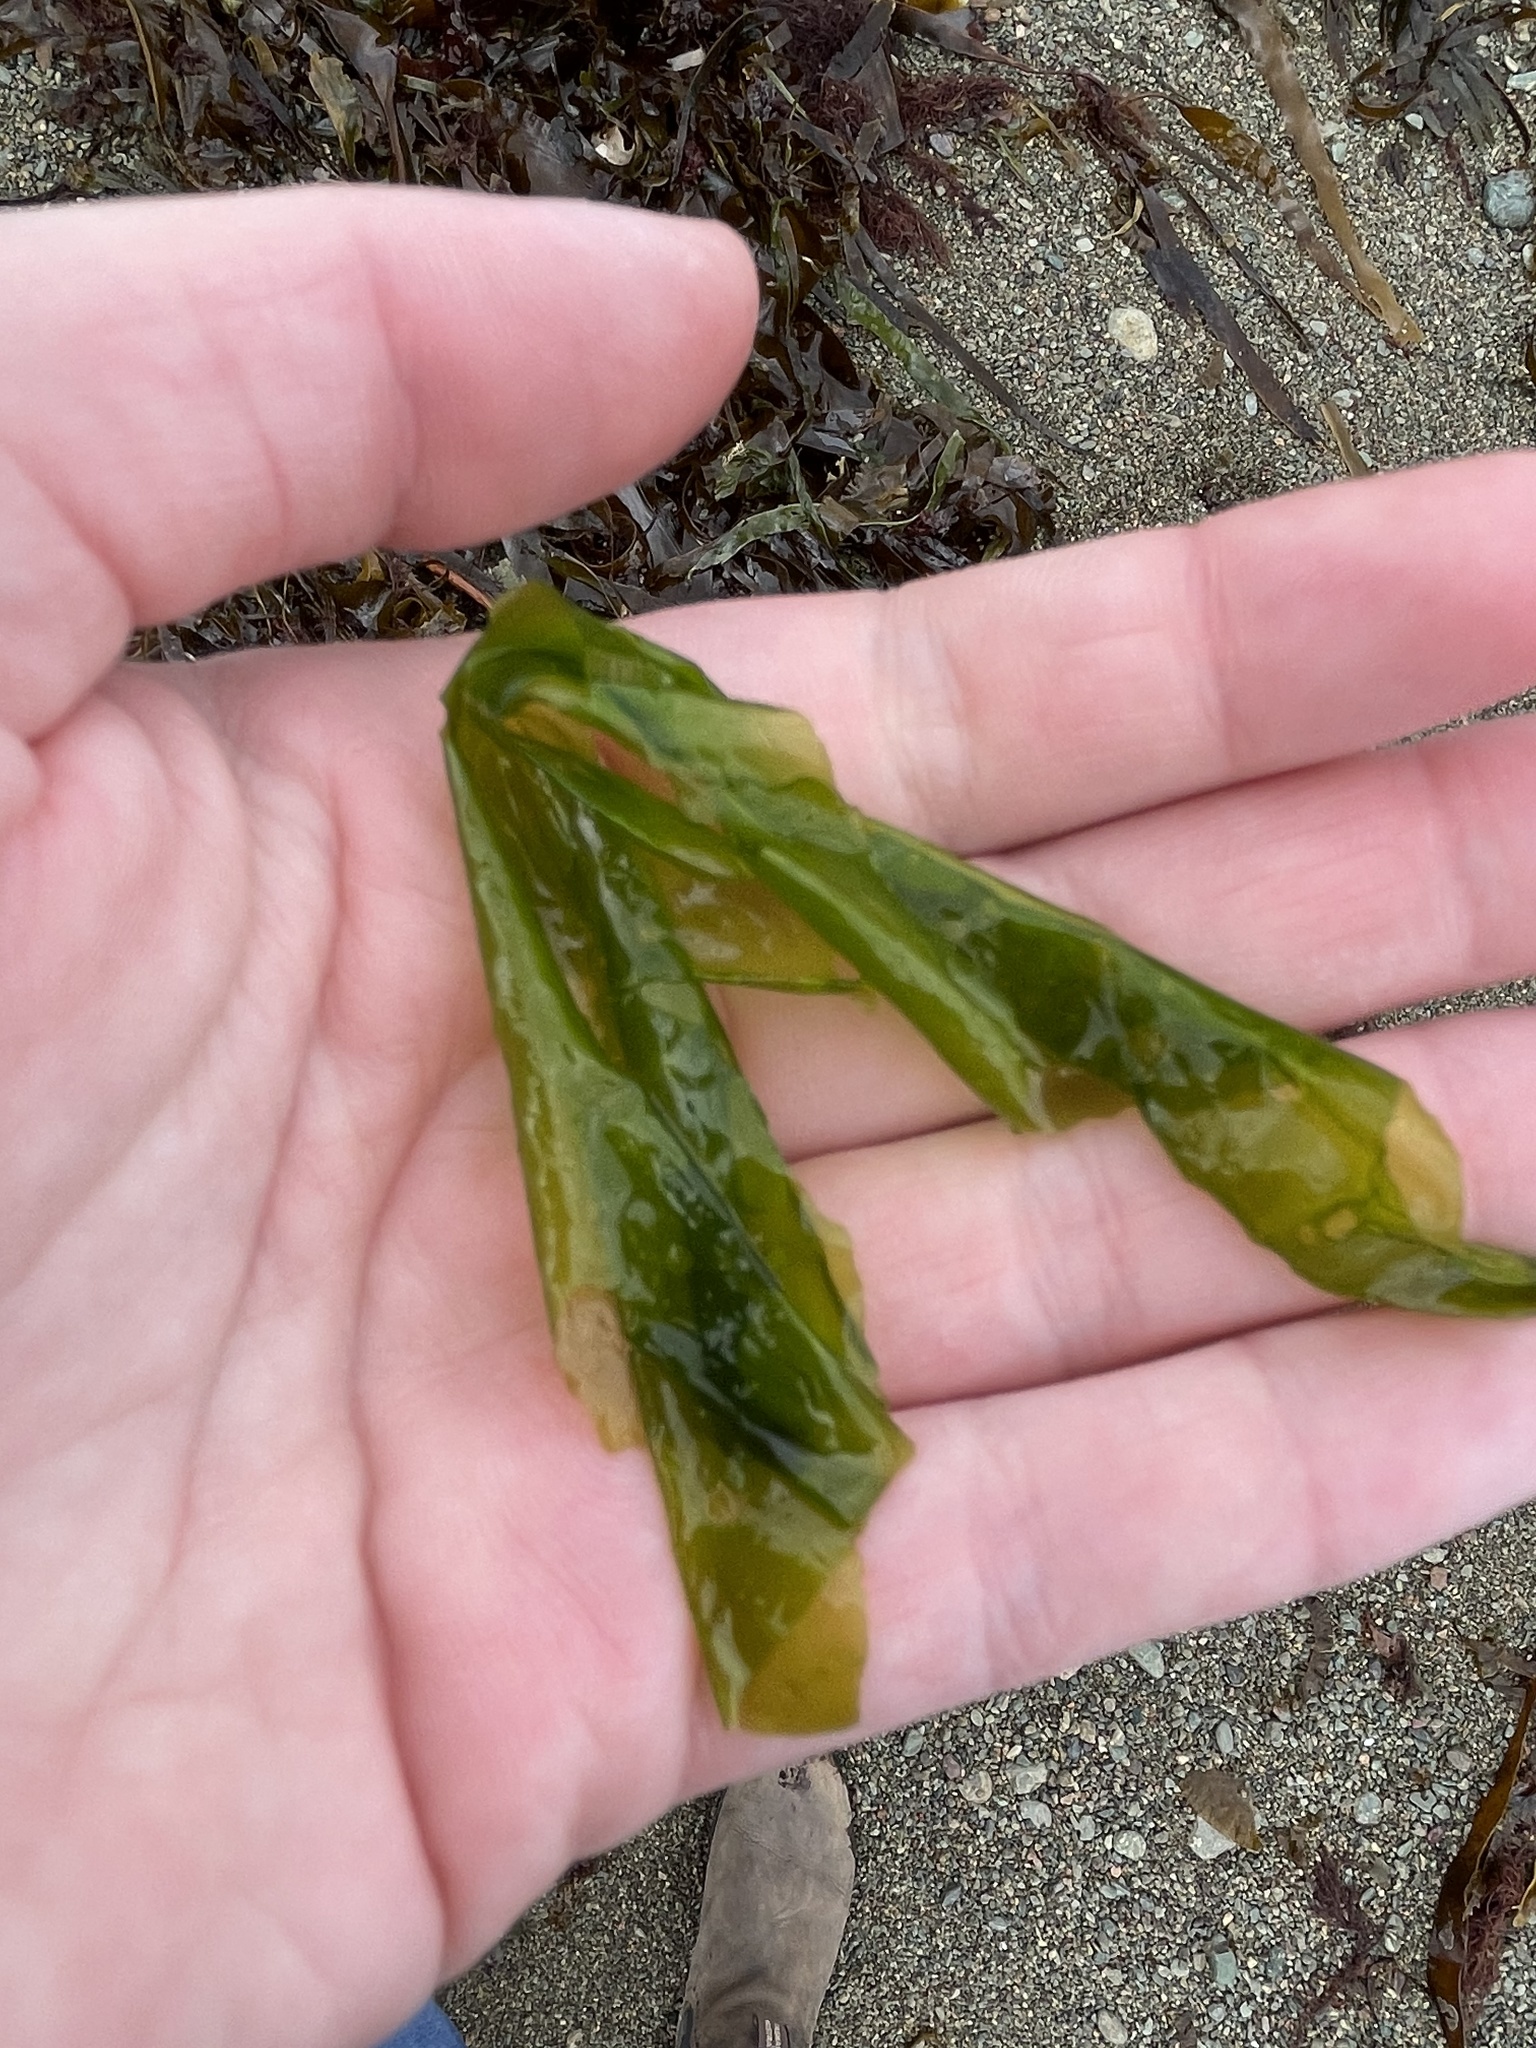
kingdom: Plantae
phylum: Chlorophyta
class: Ulvophyceae
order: Ulvales
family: Ulvaceae
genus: Ulva
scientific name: Ulva lactuca
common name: Sea lettuce
